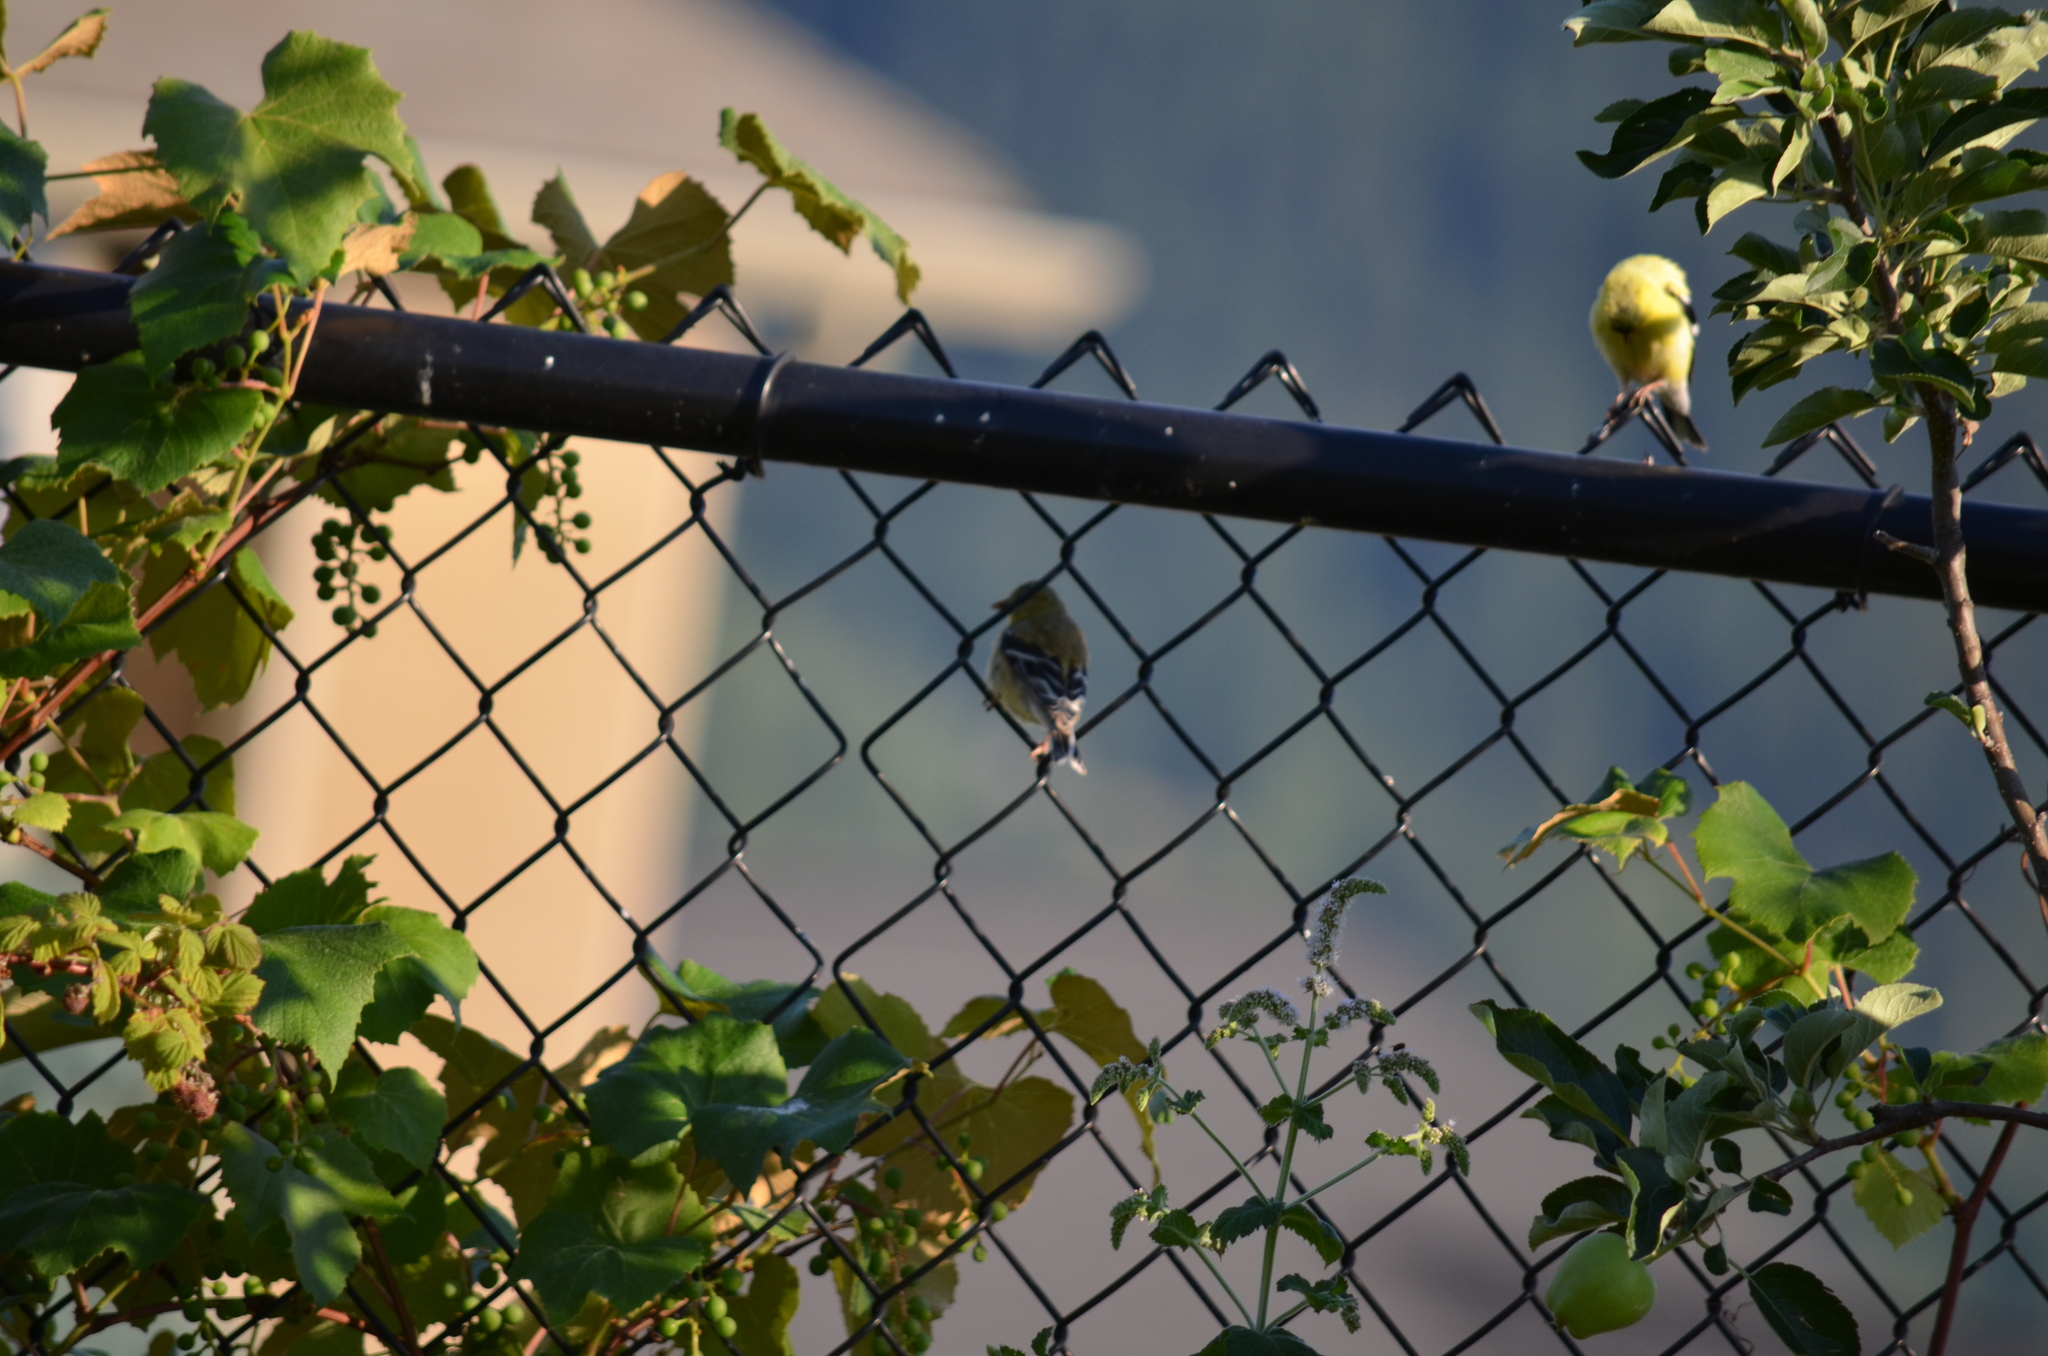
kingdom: Animalia
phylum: Chordata
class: Aves
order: Passeriformes
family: Fringillidae
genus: Spinus
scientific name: Spinus tristis
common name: American goldfinch
